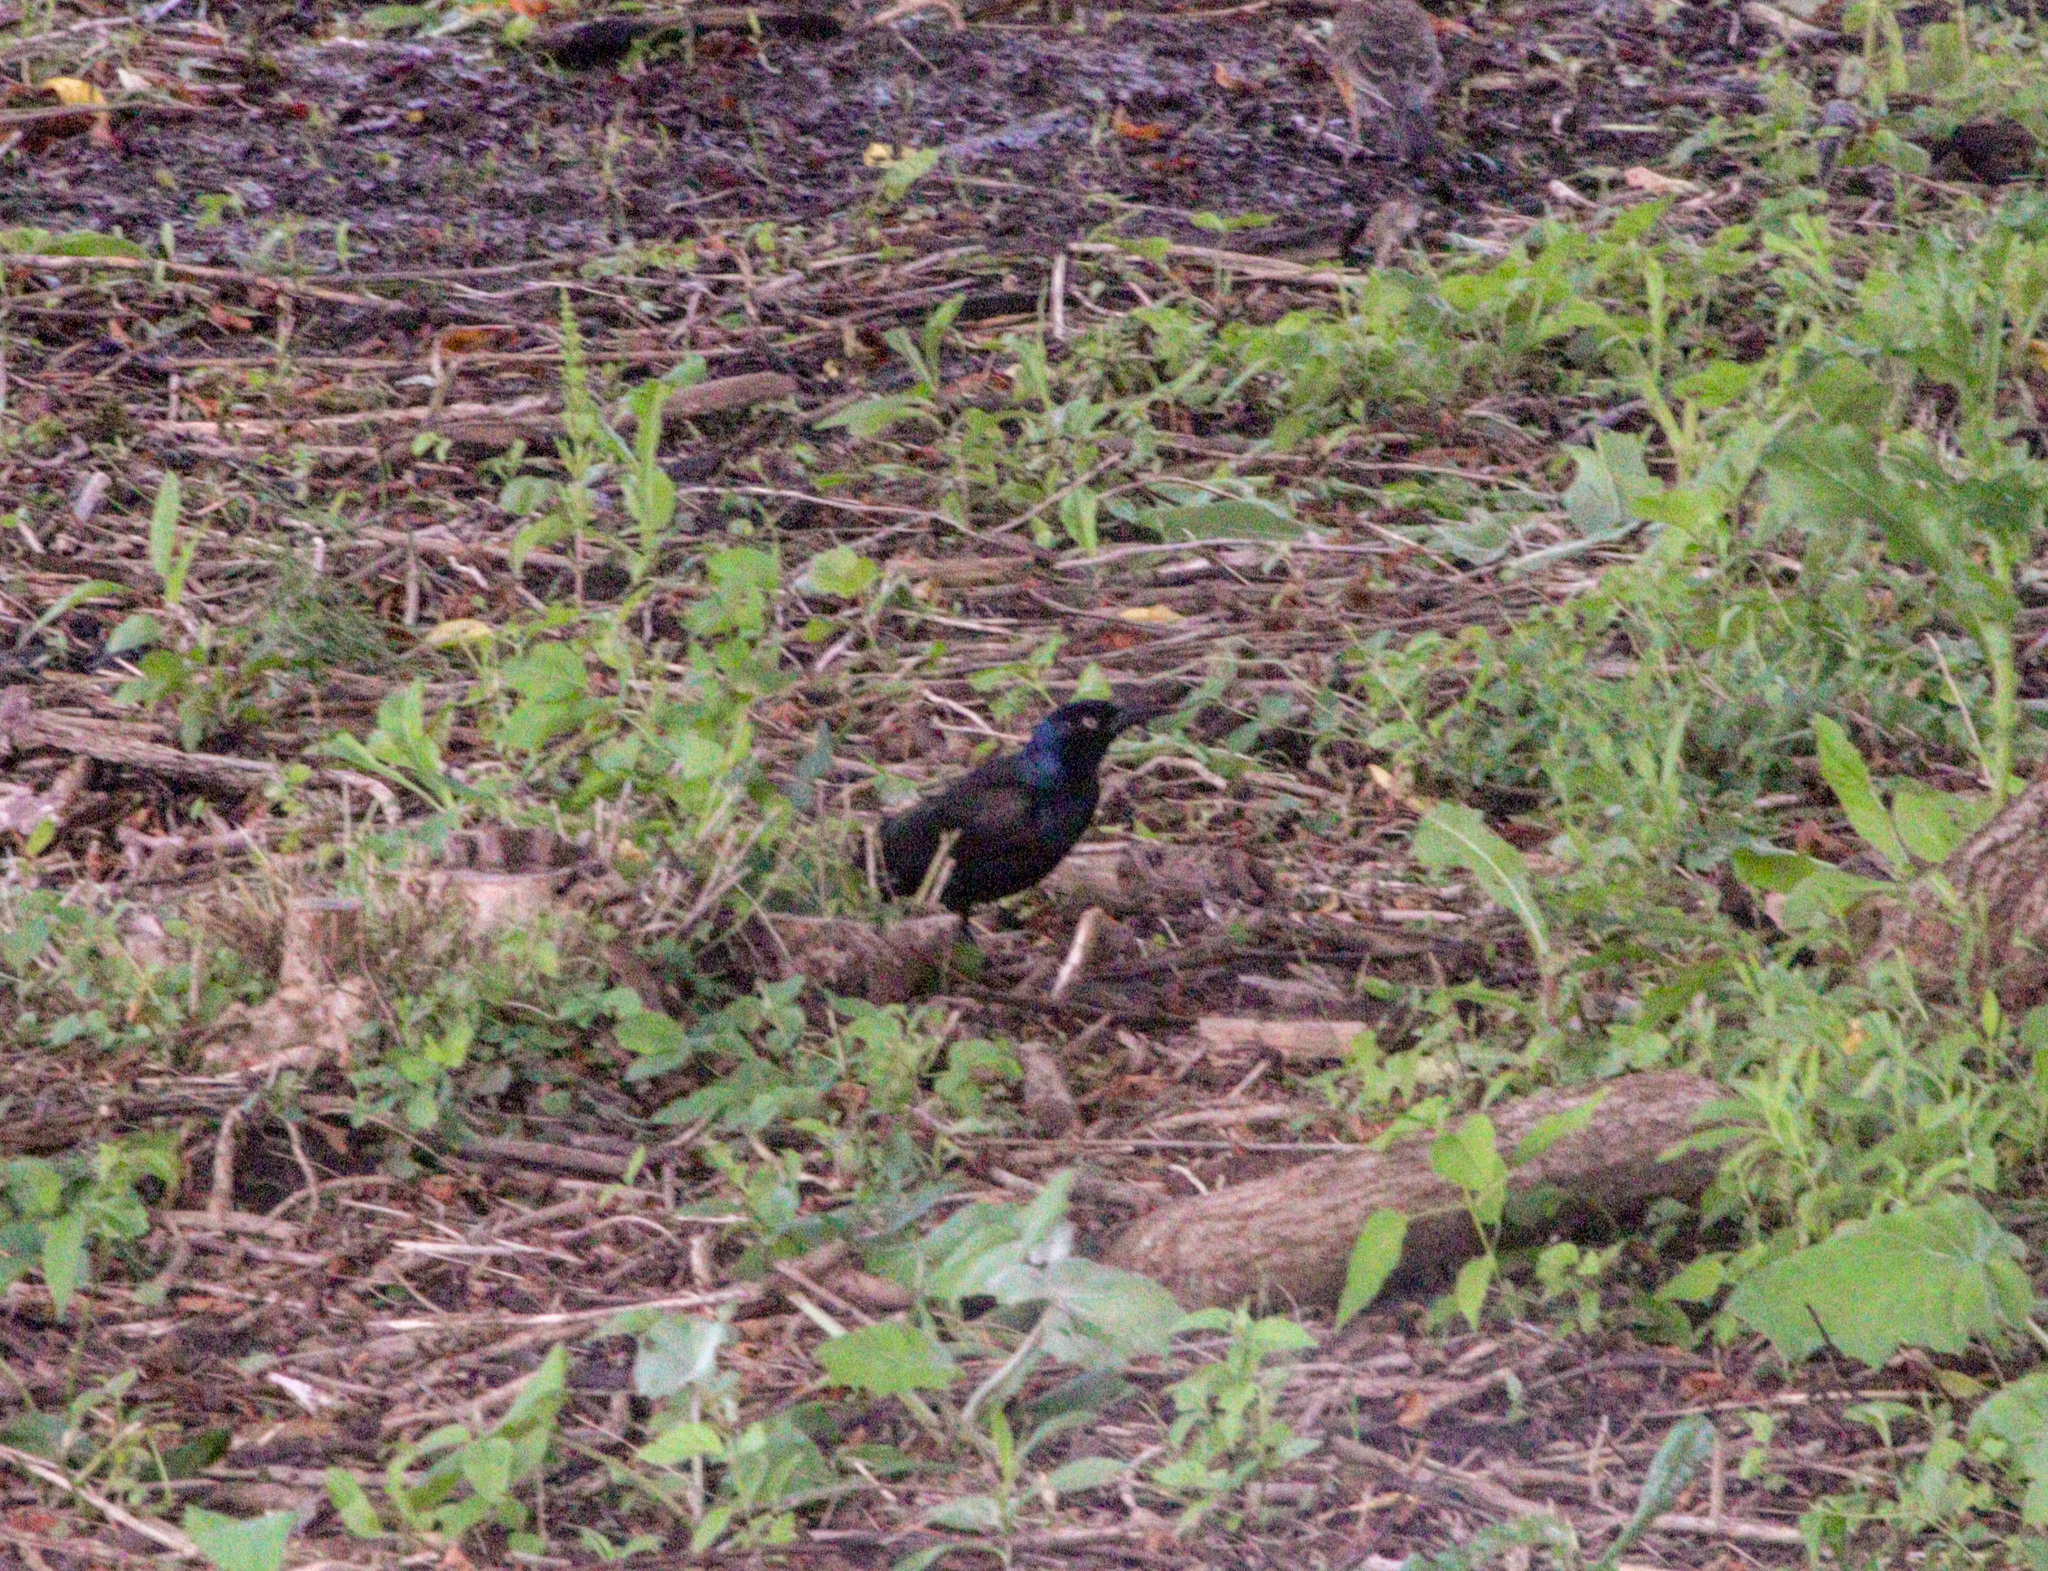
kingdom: Animalia
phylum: Chordata
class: Aves
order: Passeriformes
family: Icteridae
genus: Quiscalus
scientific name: Quiscalus quiscula
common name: Common grackle
